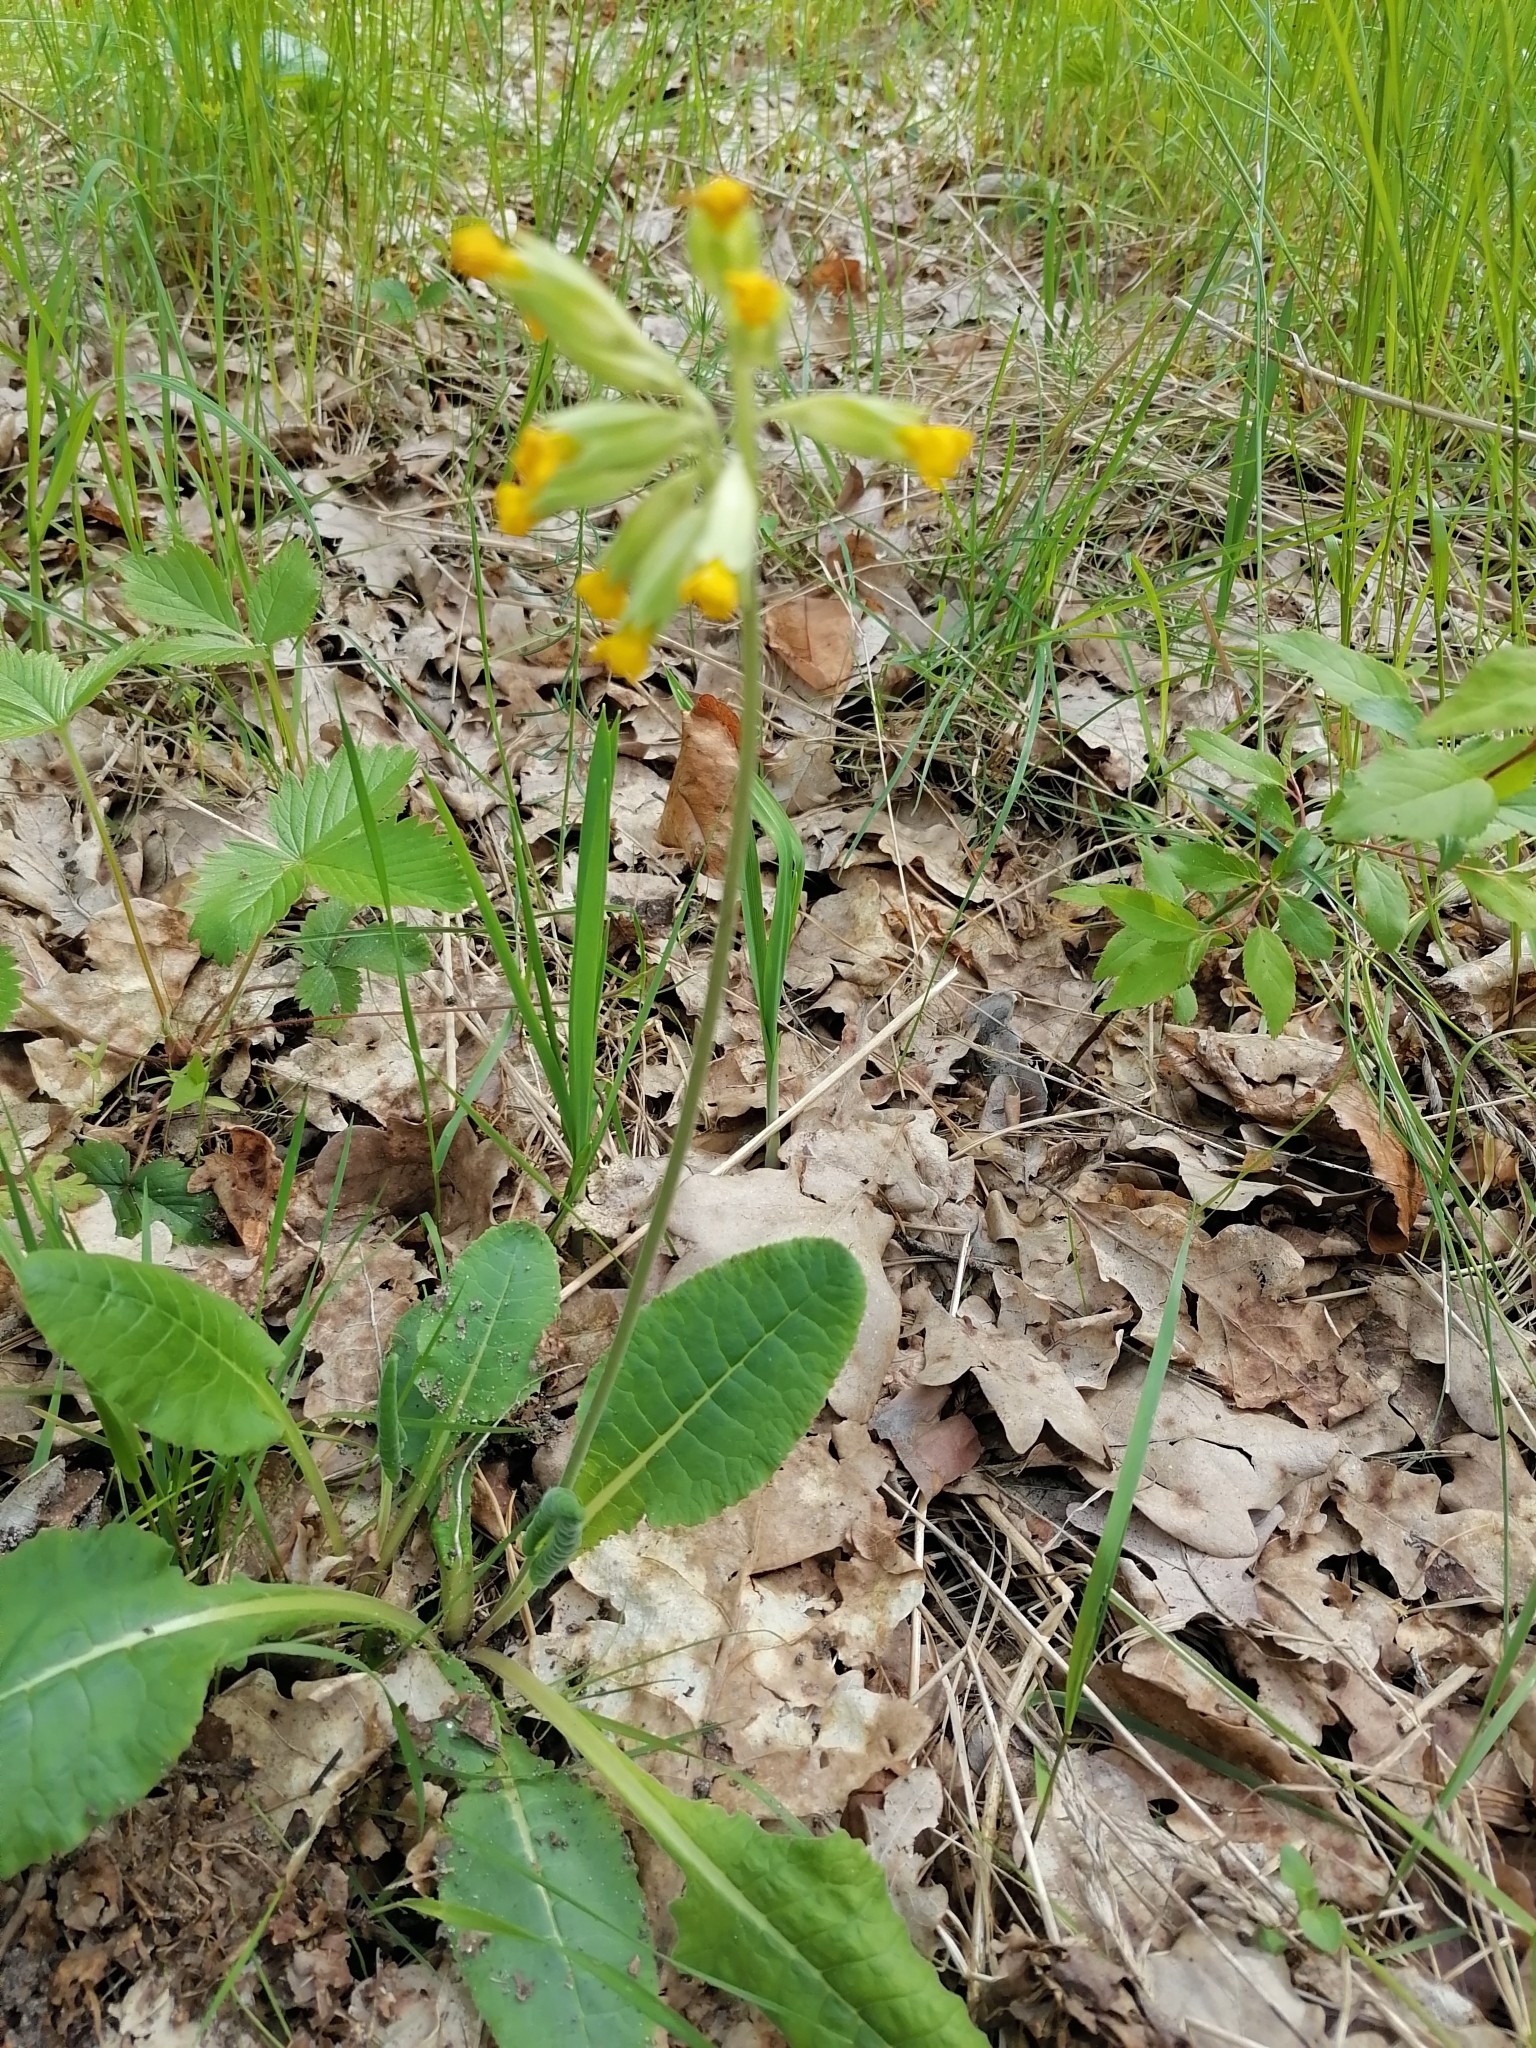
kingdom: Plantae
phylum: Tracheophyta
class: Magnoliopsida
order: Ericales
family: Primulaceae
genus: Primula
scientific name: Primula veris
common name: Cowslip
